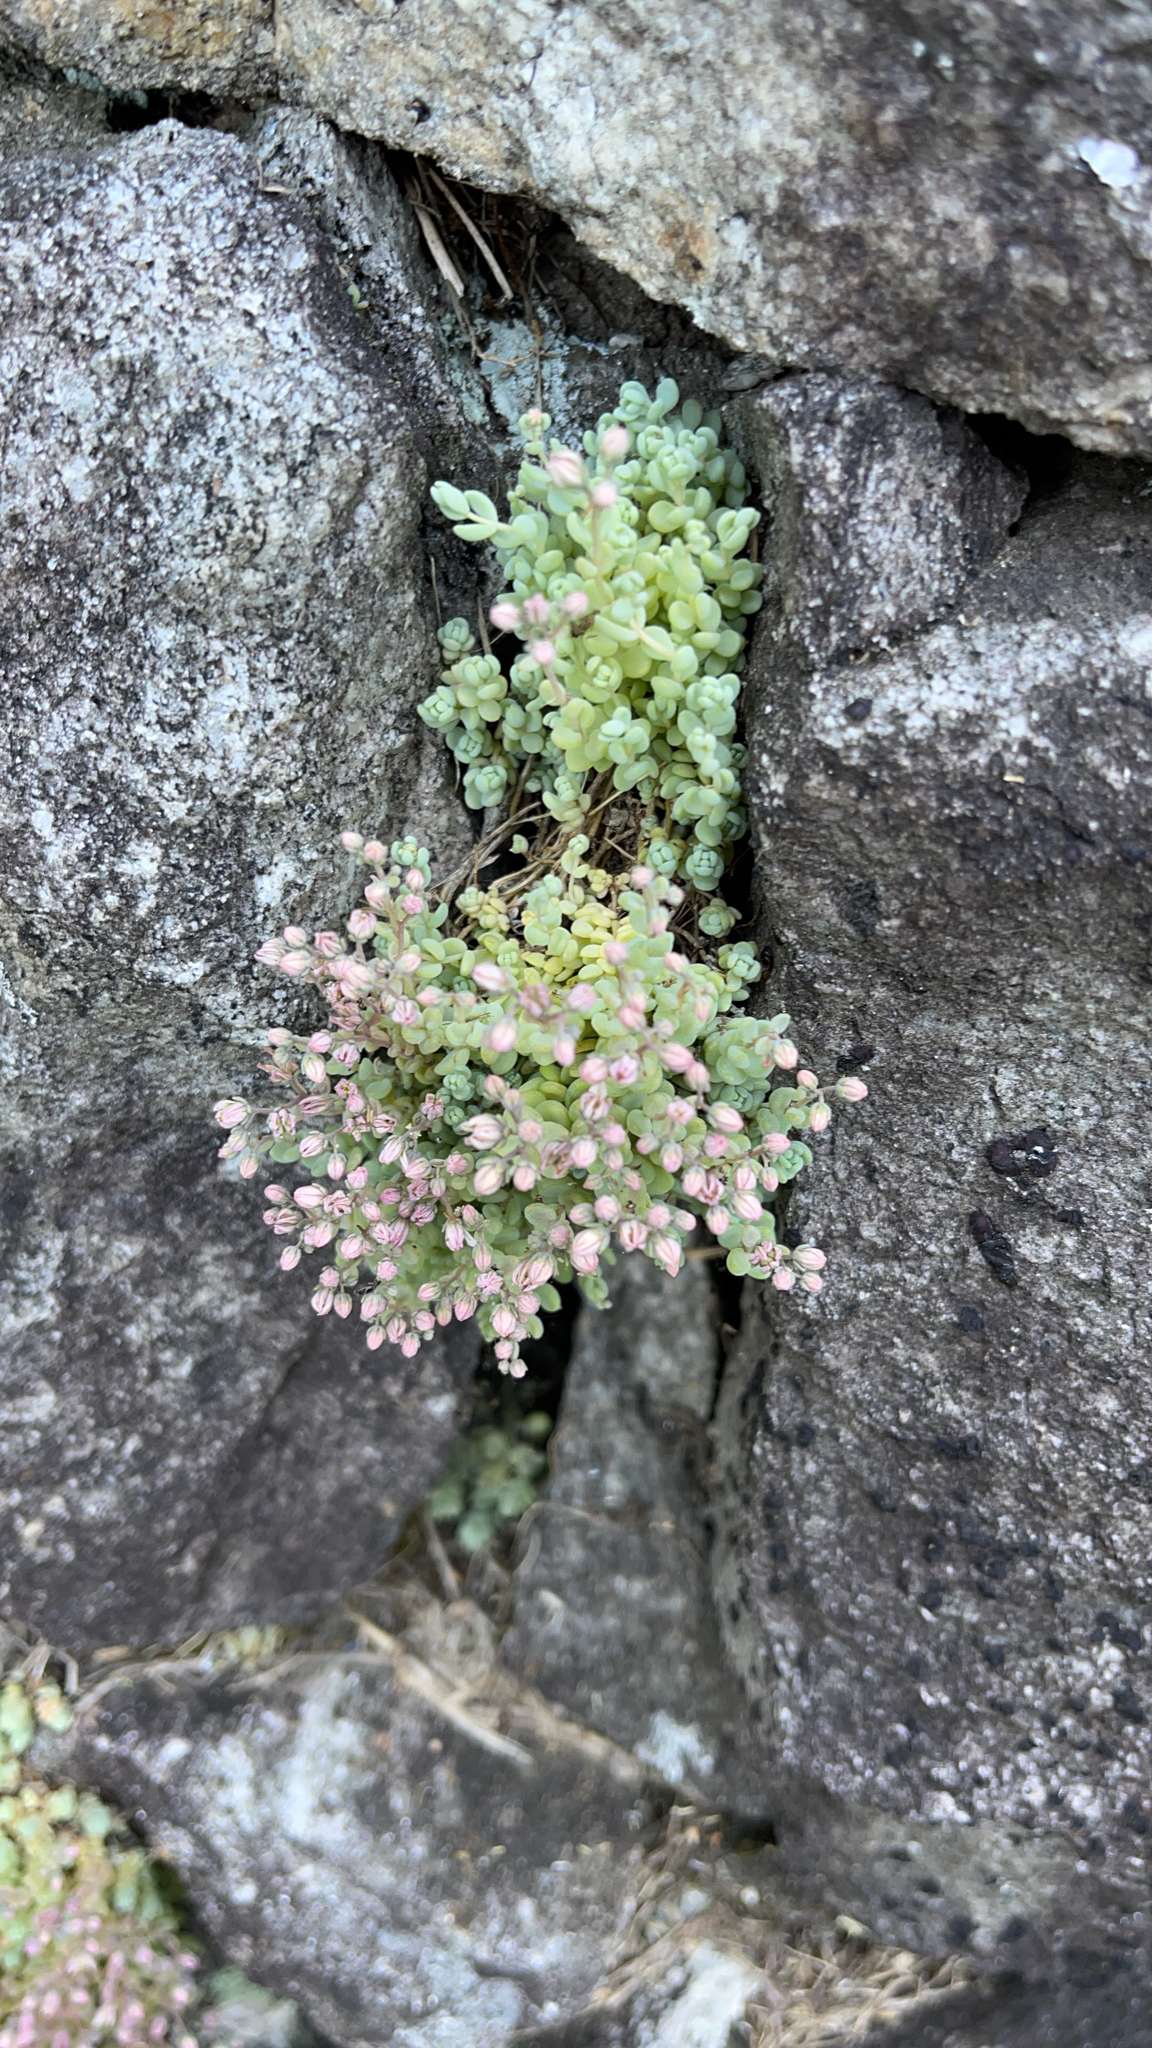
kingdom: Plantae
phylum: Tracheophyta
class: Magnoliopsida
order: Saxifragales
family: Crassulaceae
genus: Sedum
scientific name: Sedum dasyphyllum
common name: Thick-leaf stonecrop
